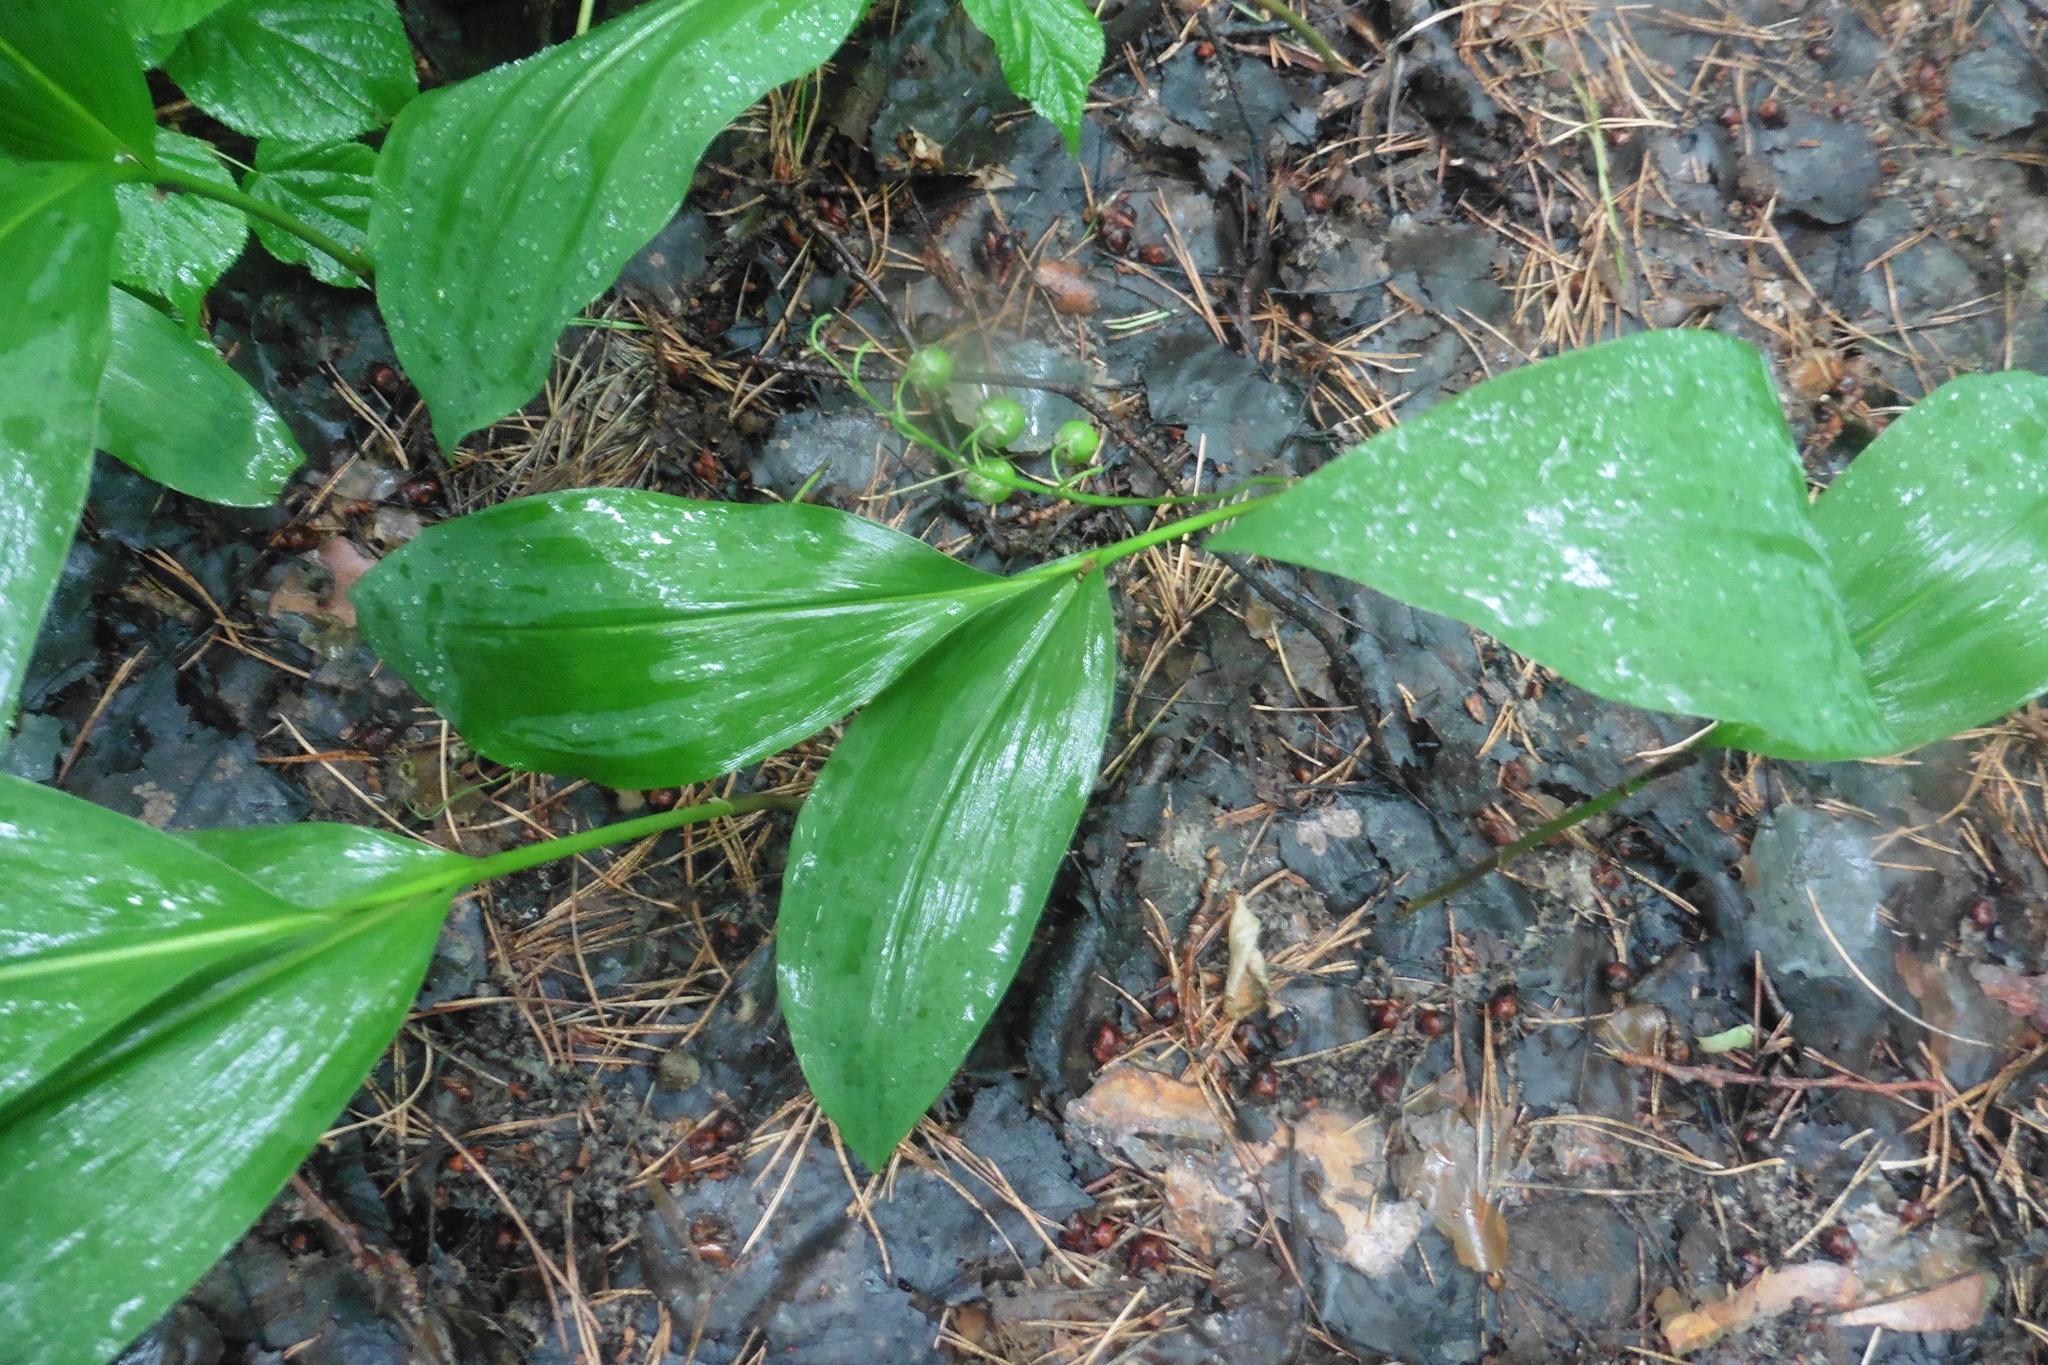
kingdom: Plantae
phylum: Tracheophyta
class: Liliopsida
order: Asparagales
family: Asparagaceae
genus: Convallaria
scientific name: Convallaria majalis
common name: Lily-of-the-valley
